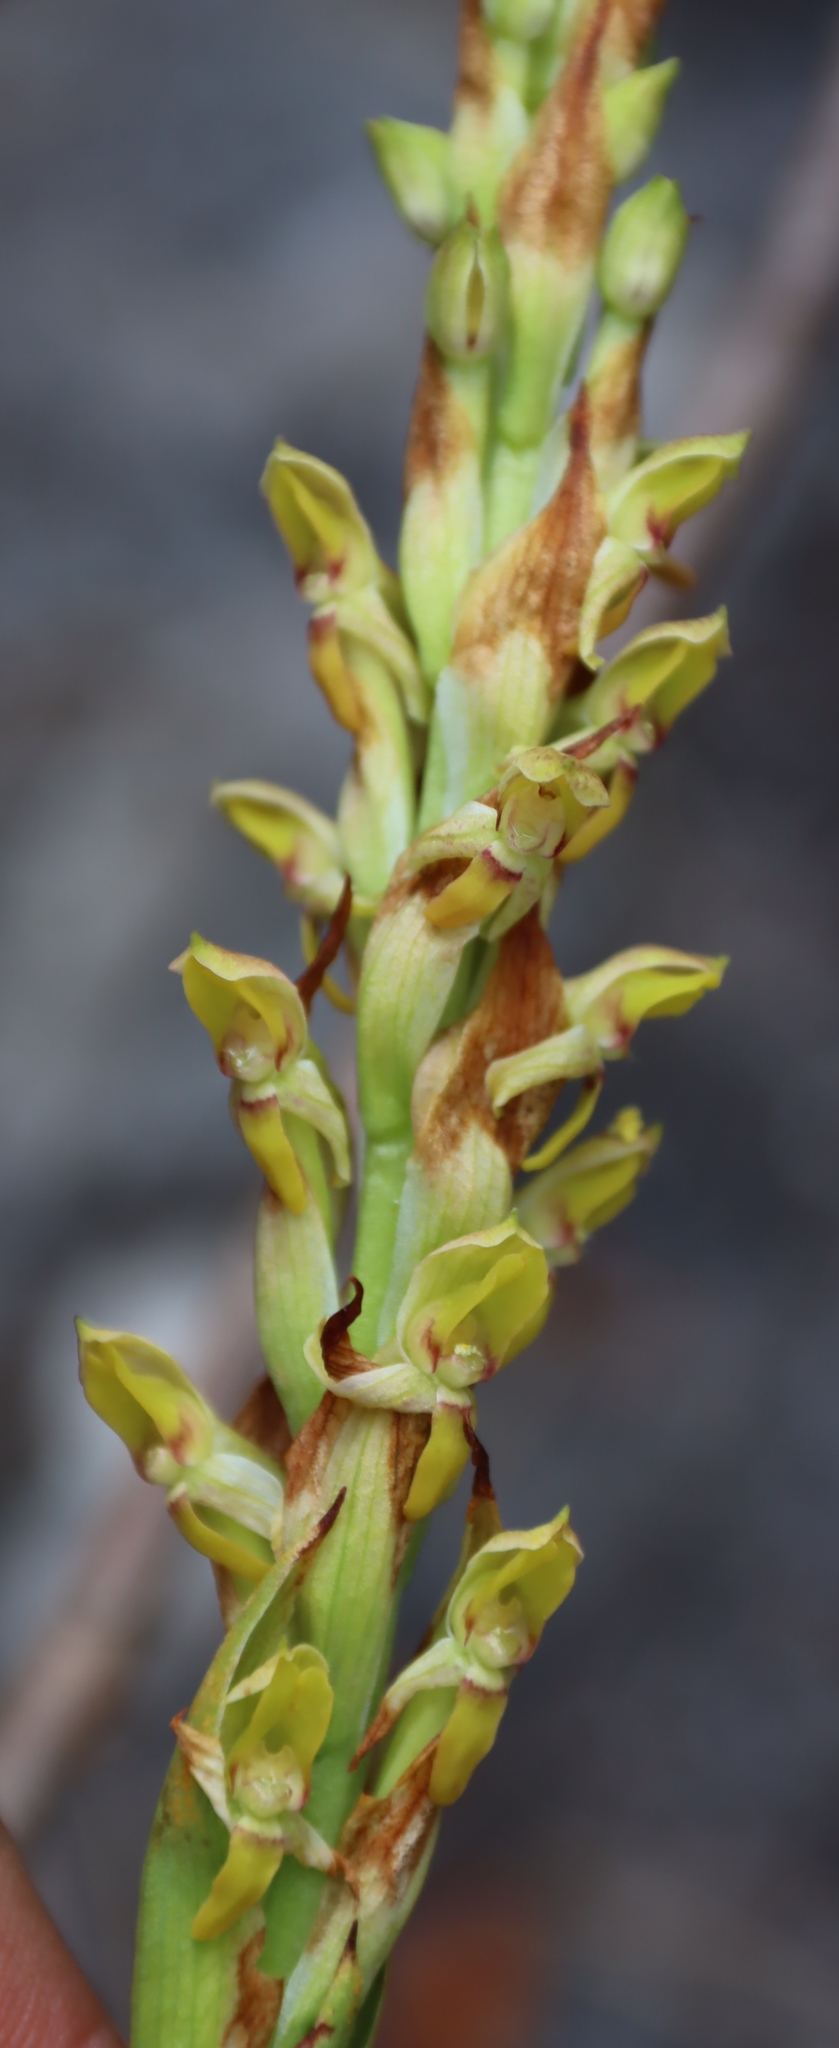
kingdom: Plantae
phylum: Tracheophyta
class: Liliopsida
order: Asparagales
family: Orchidaceae
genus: Disa
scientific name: Disa reticulata
